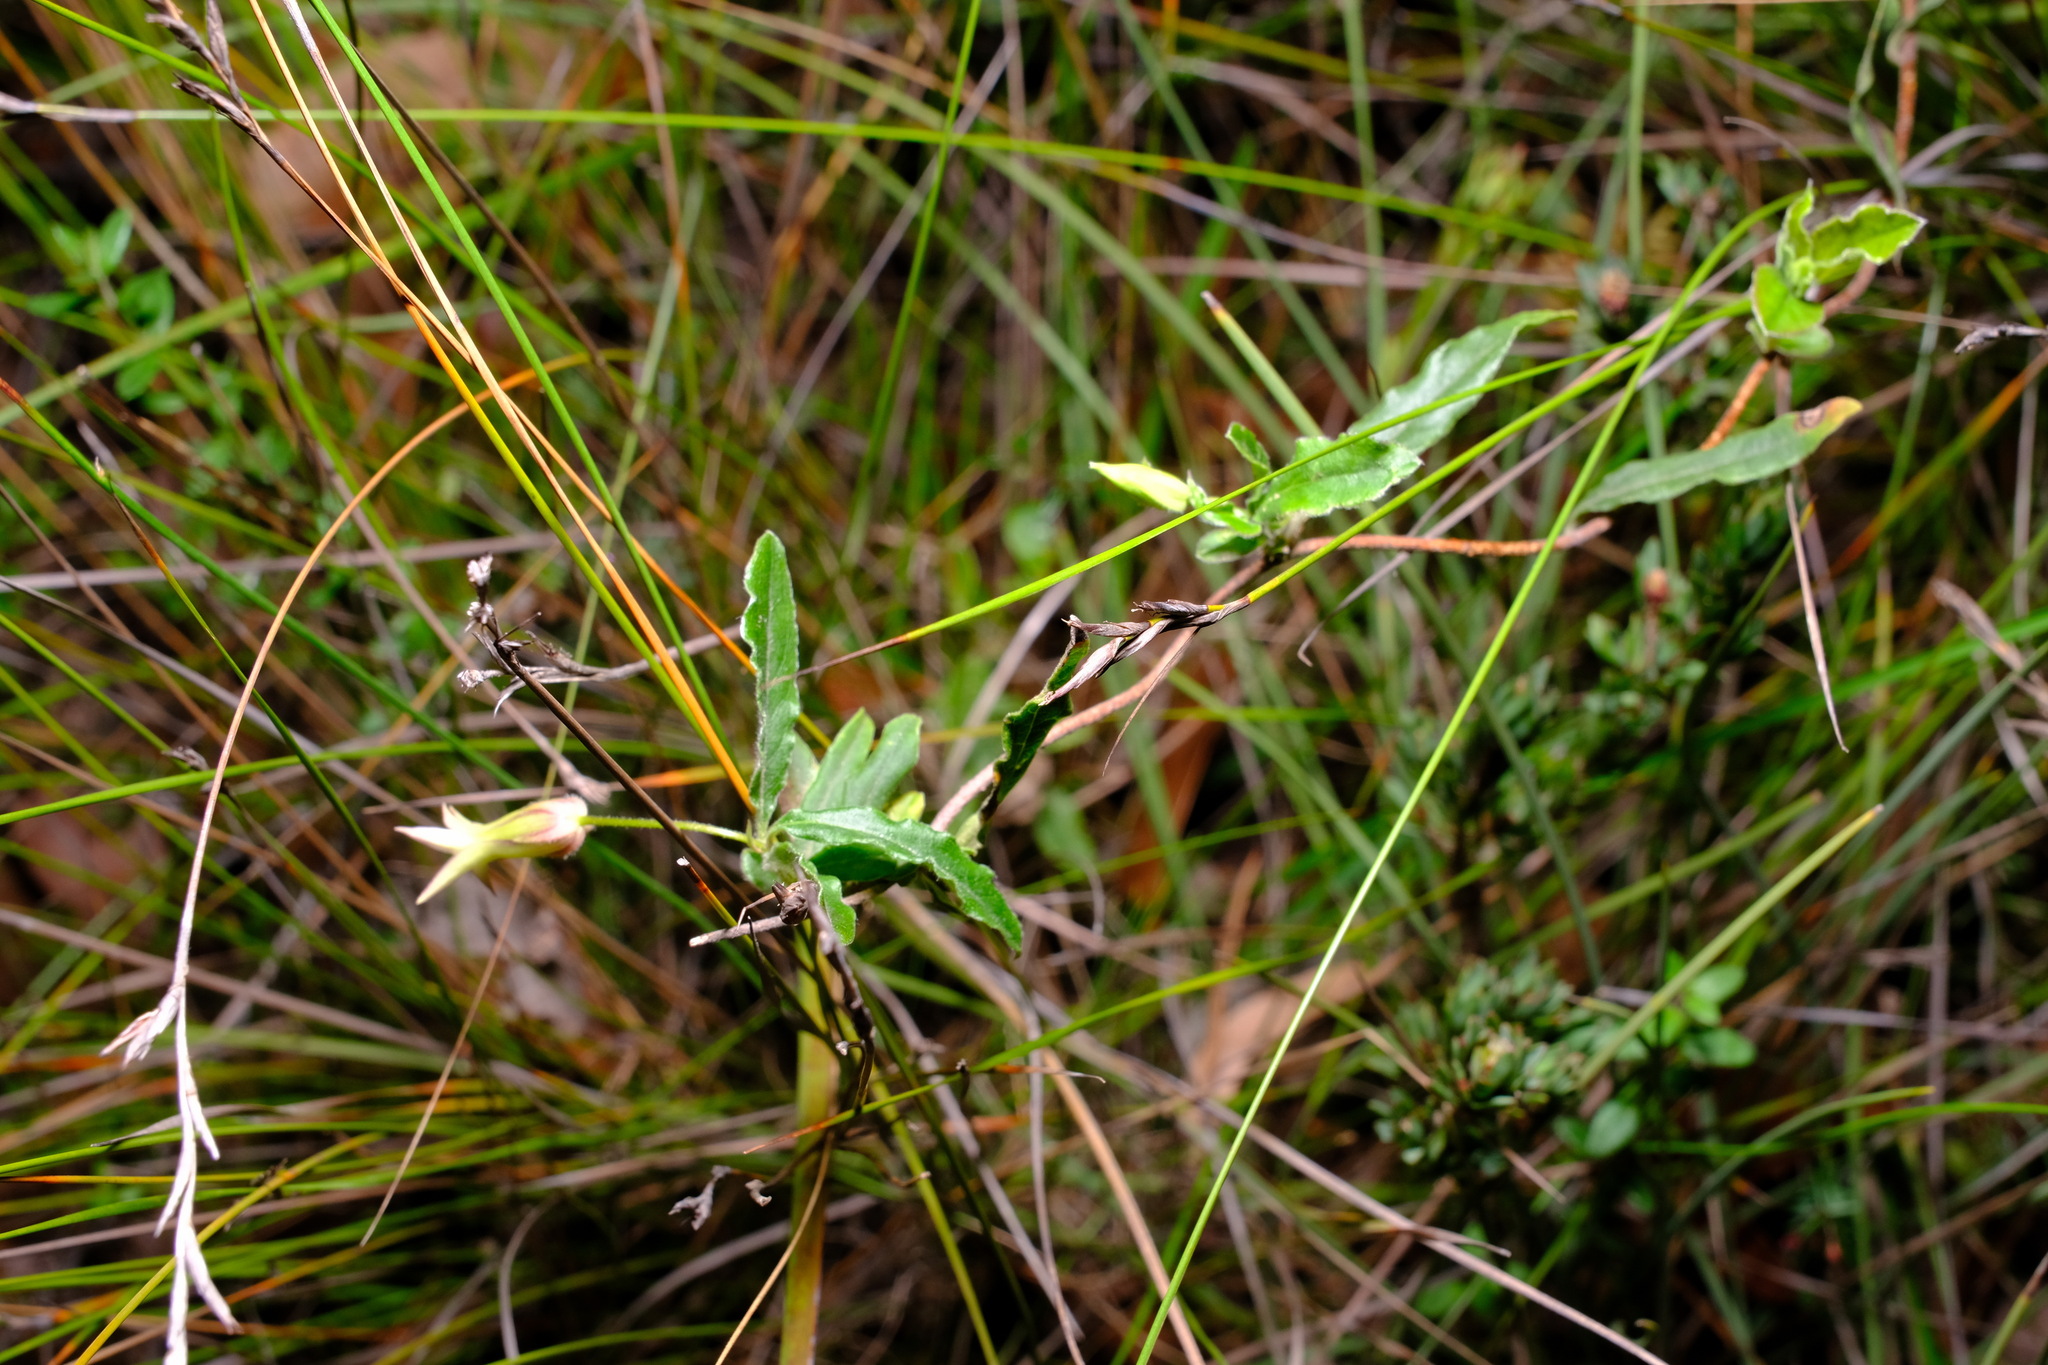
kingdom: Plantae
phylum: Tracheophyta
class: Magnoliopsida
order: Apiales
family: Pittosporaceae
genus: Billardiera
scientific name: Billardiera mutabilis
